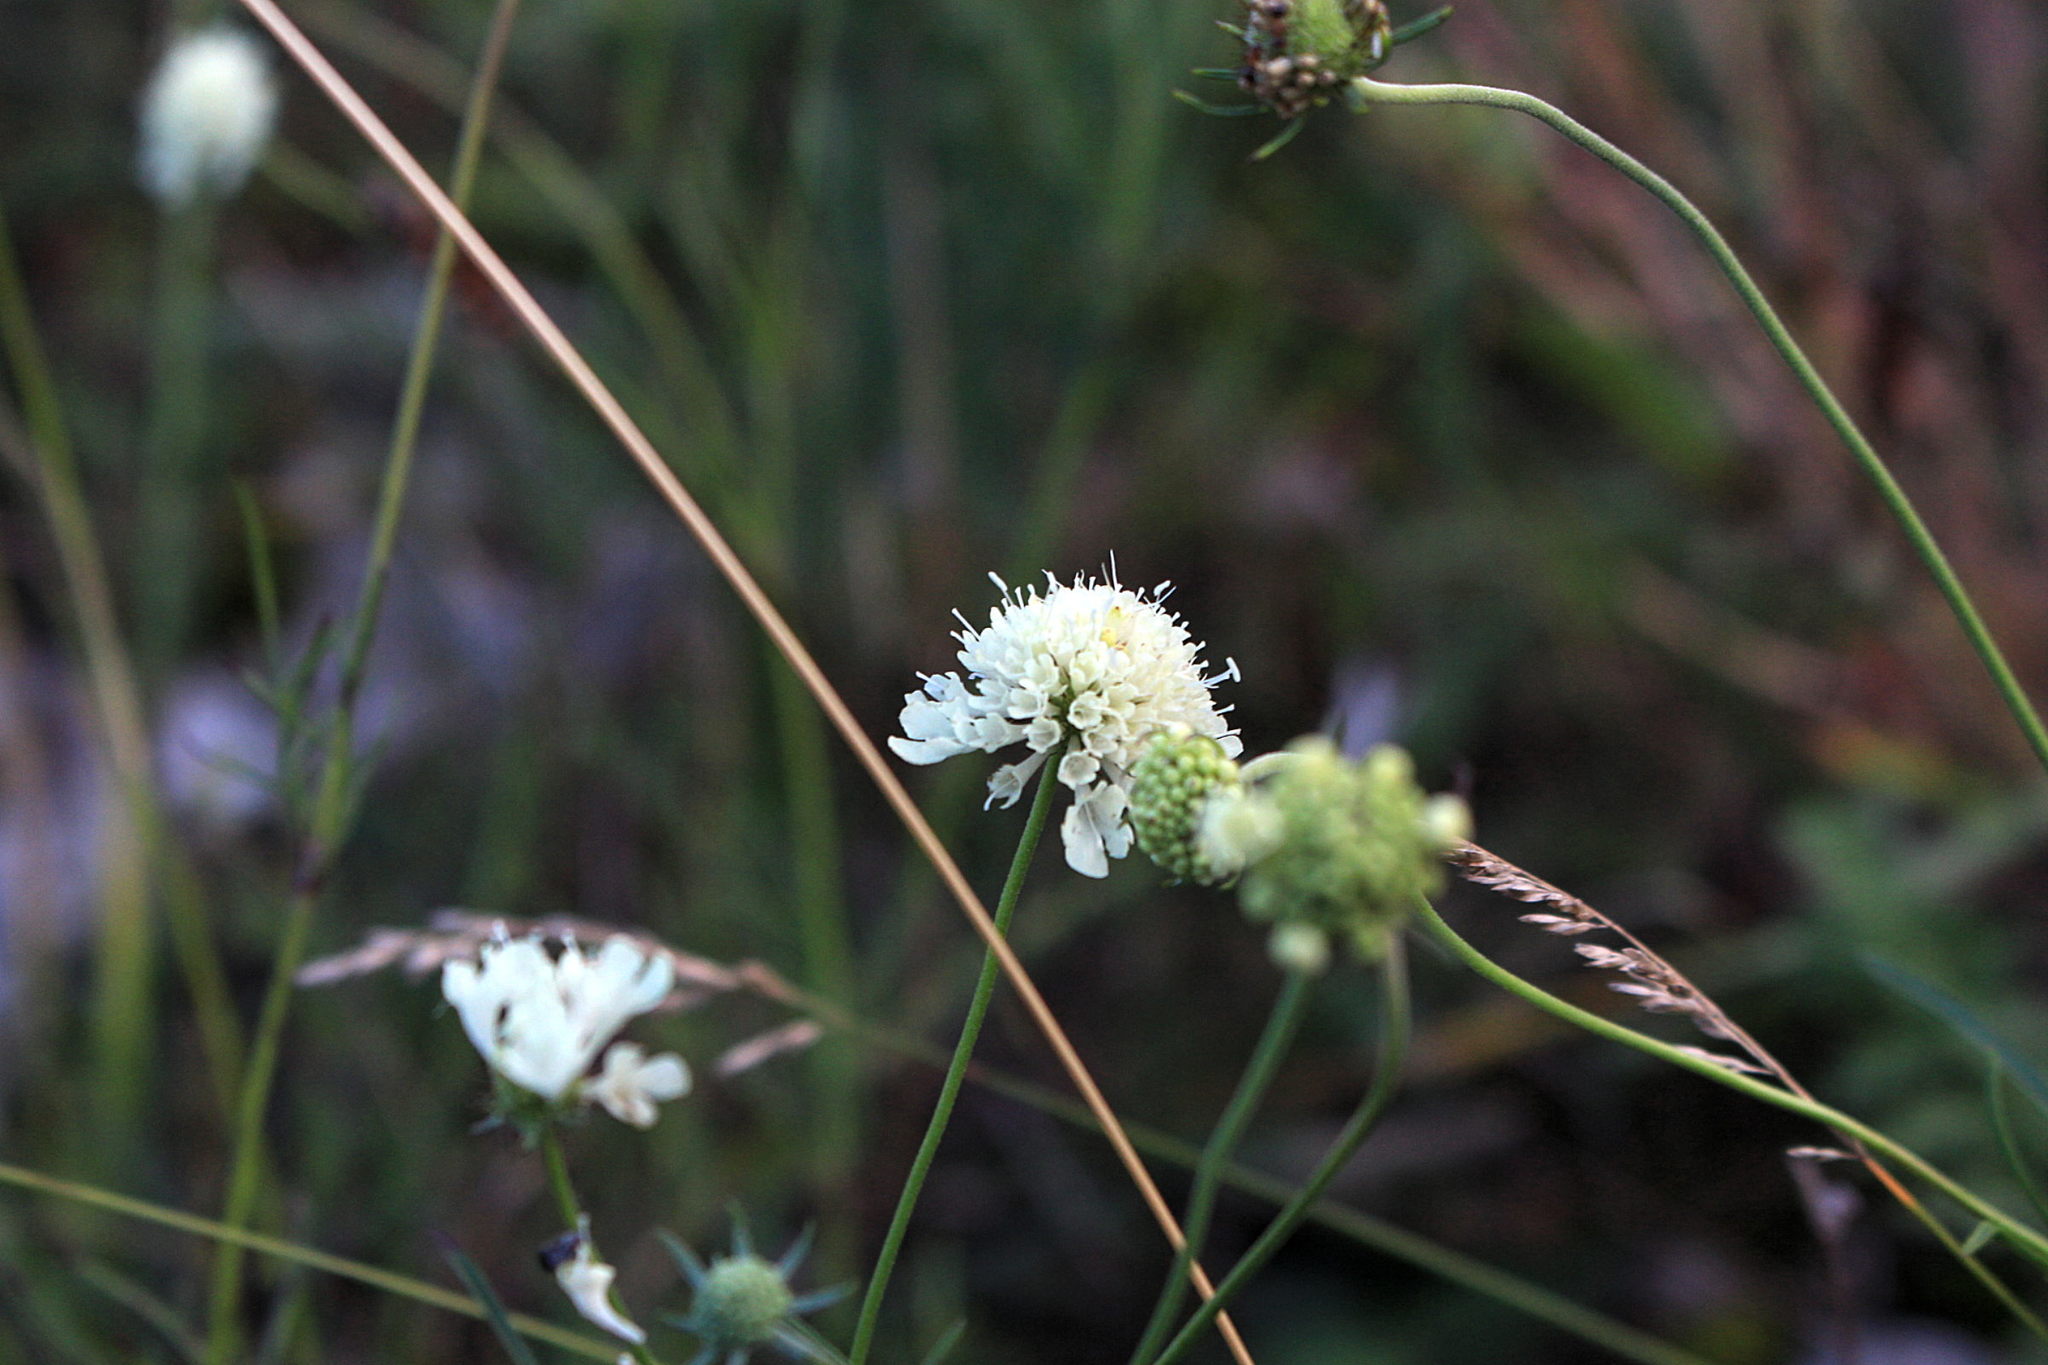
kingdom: Plantae
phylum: Tracheophyta
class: Magnoliopsida
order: Dipsacales
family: Caprifoliaceae
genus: Scabiosa
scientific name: Scabiosa ochroleuca
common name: Cream pincushions
